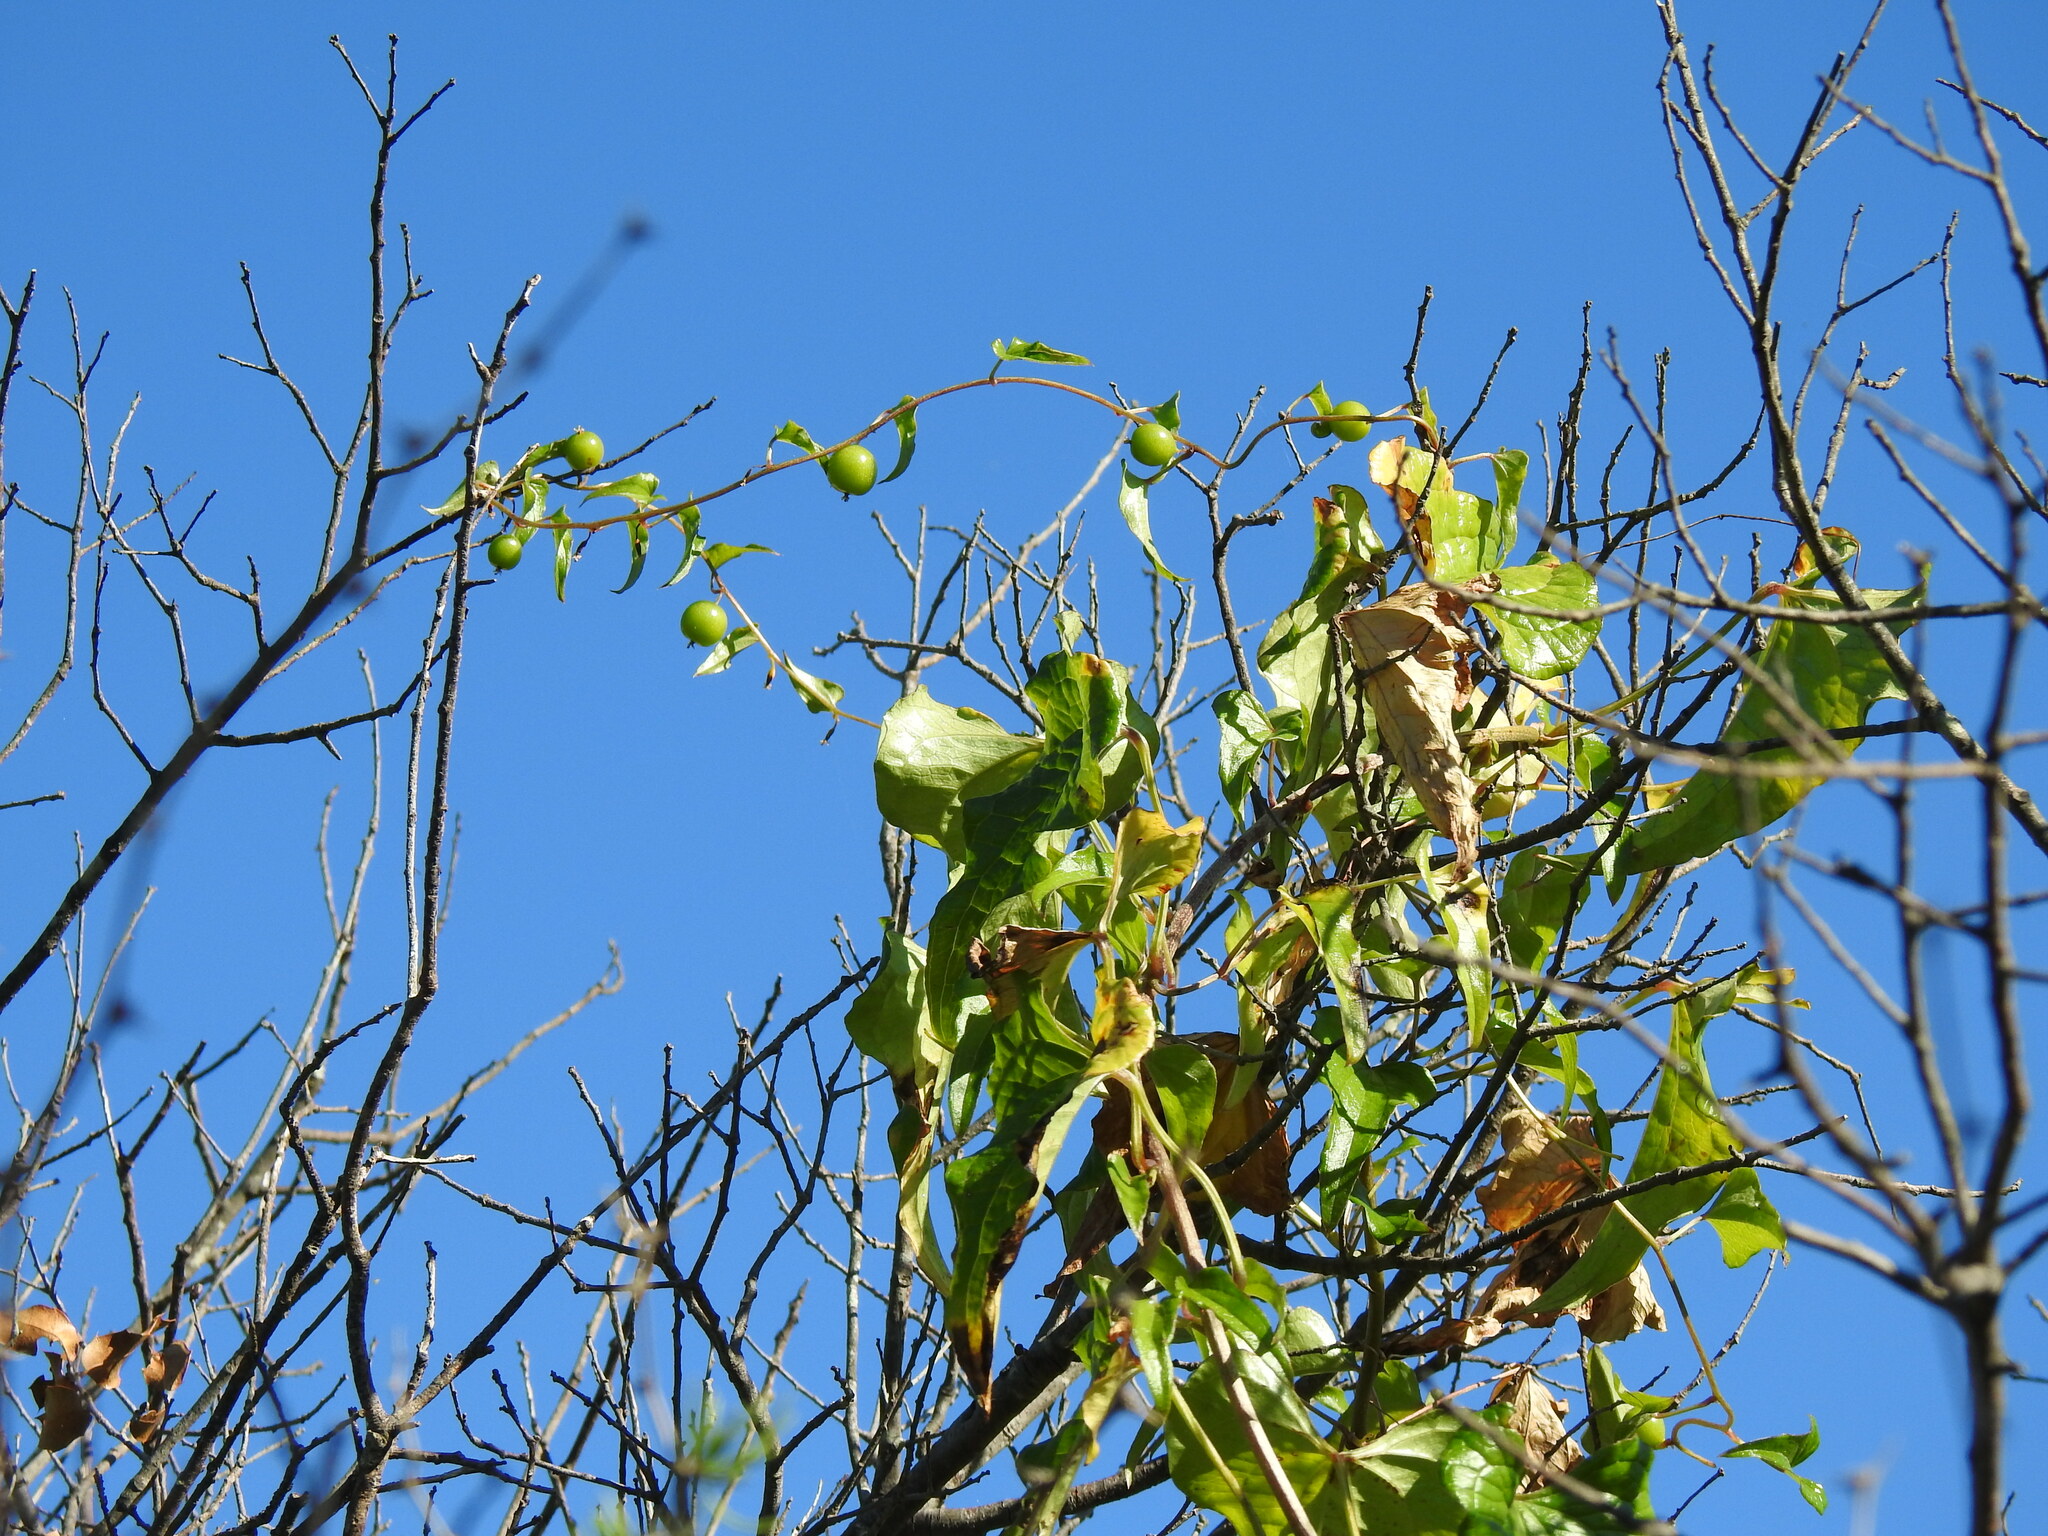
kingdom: Plantae
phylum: Tracheophyta
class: Liliopsida
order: Dioscoreales
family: Dioscoreaceae
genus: Dioscorea
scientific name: Dioscorea communis
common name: Black-bindweed
